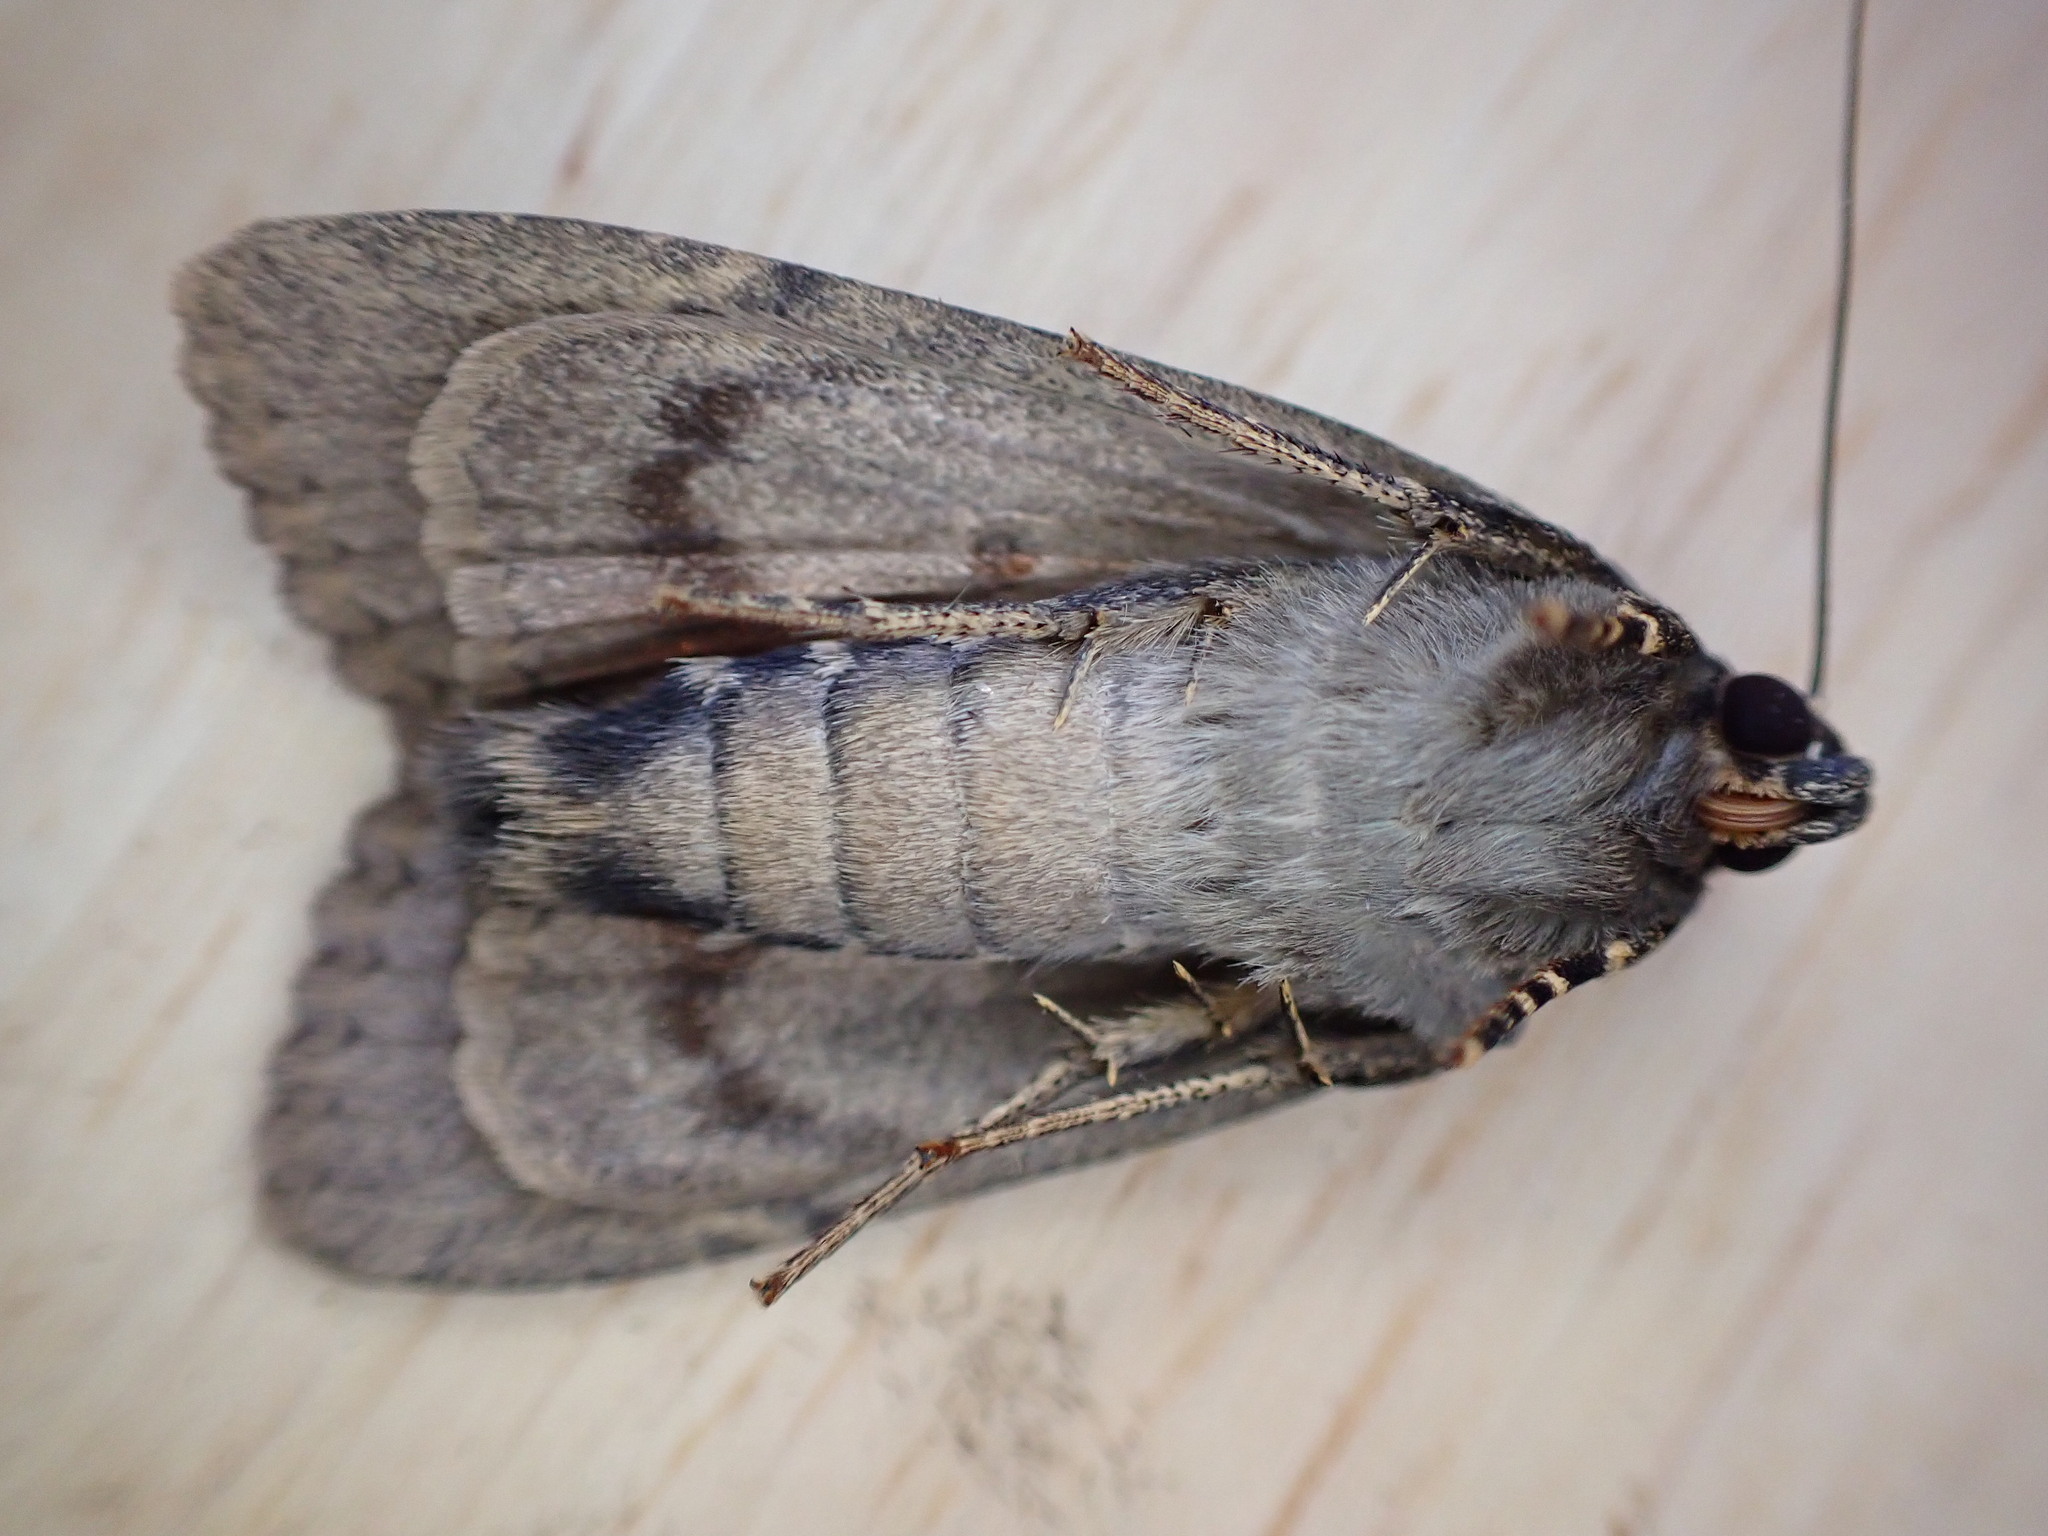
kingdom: Animalia
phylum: Arthropoda
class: Insecta
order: Lepidoptera
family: Noctuidae
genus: Amphipyra
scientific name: Amphipyra berbera
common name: Svensson's copper underwing
